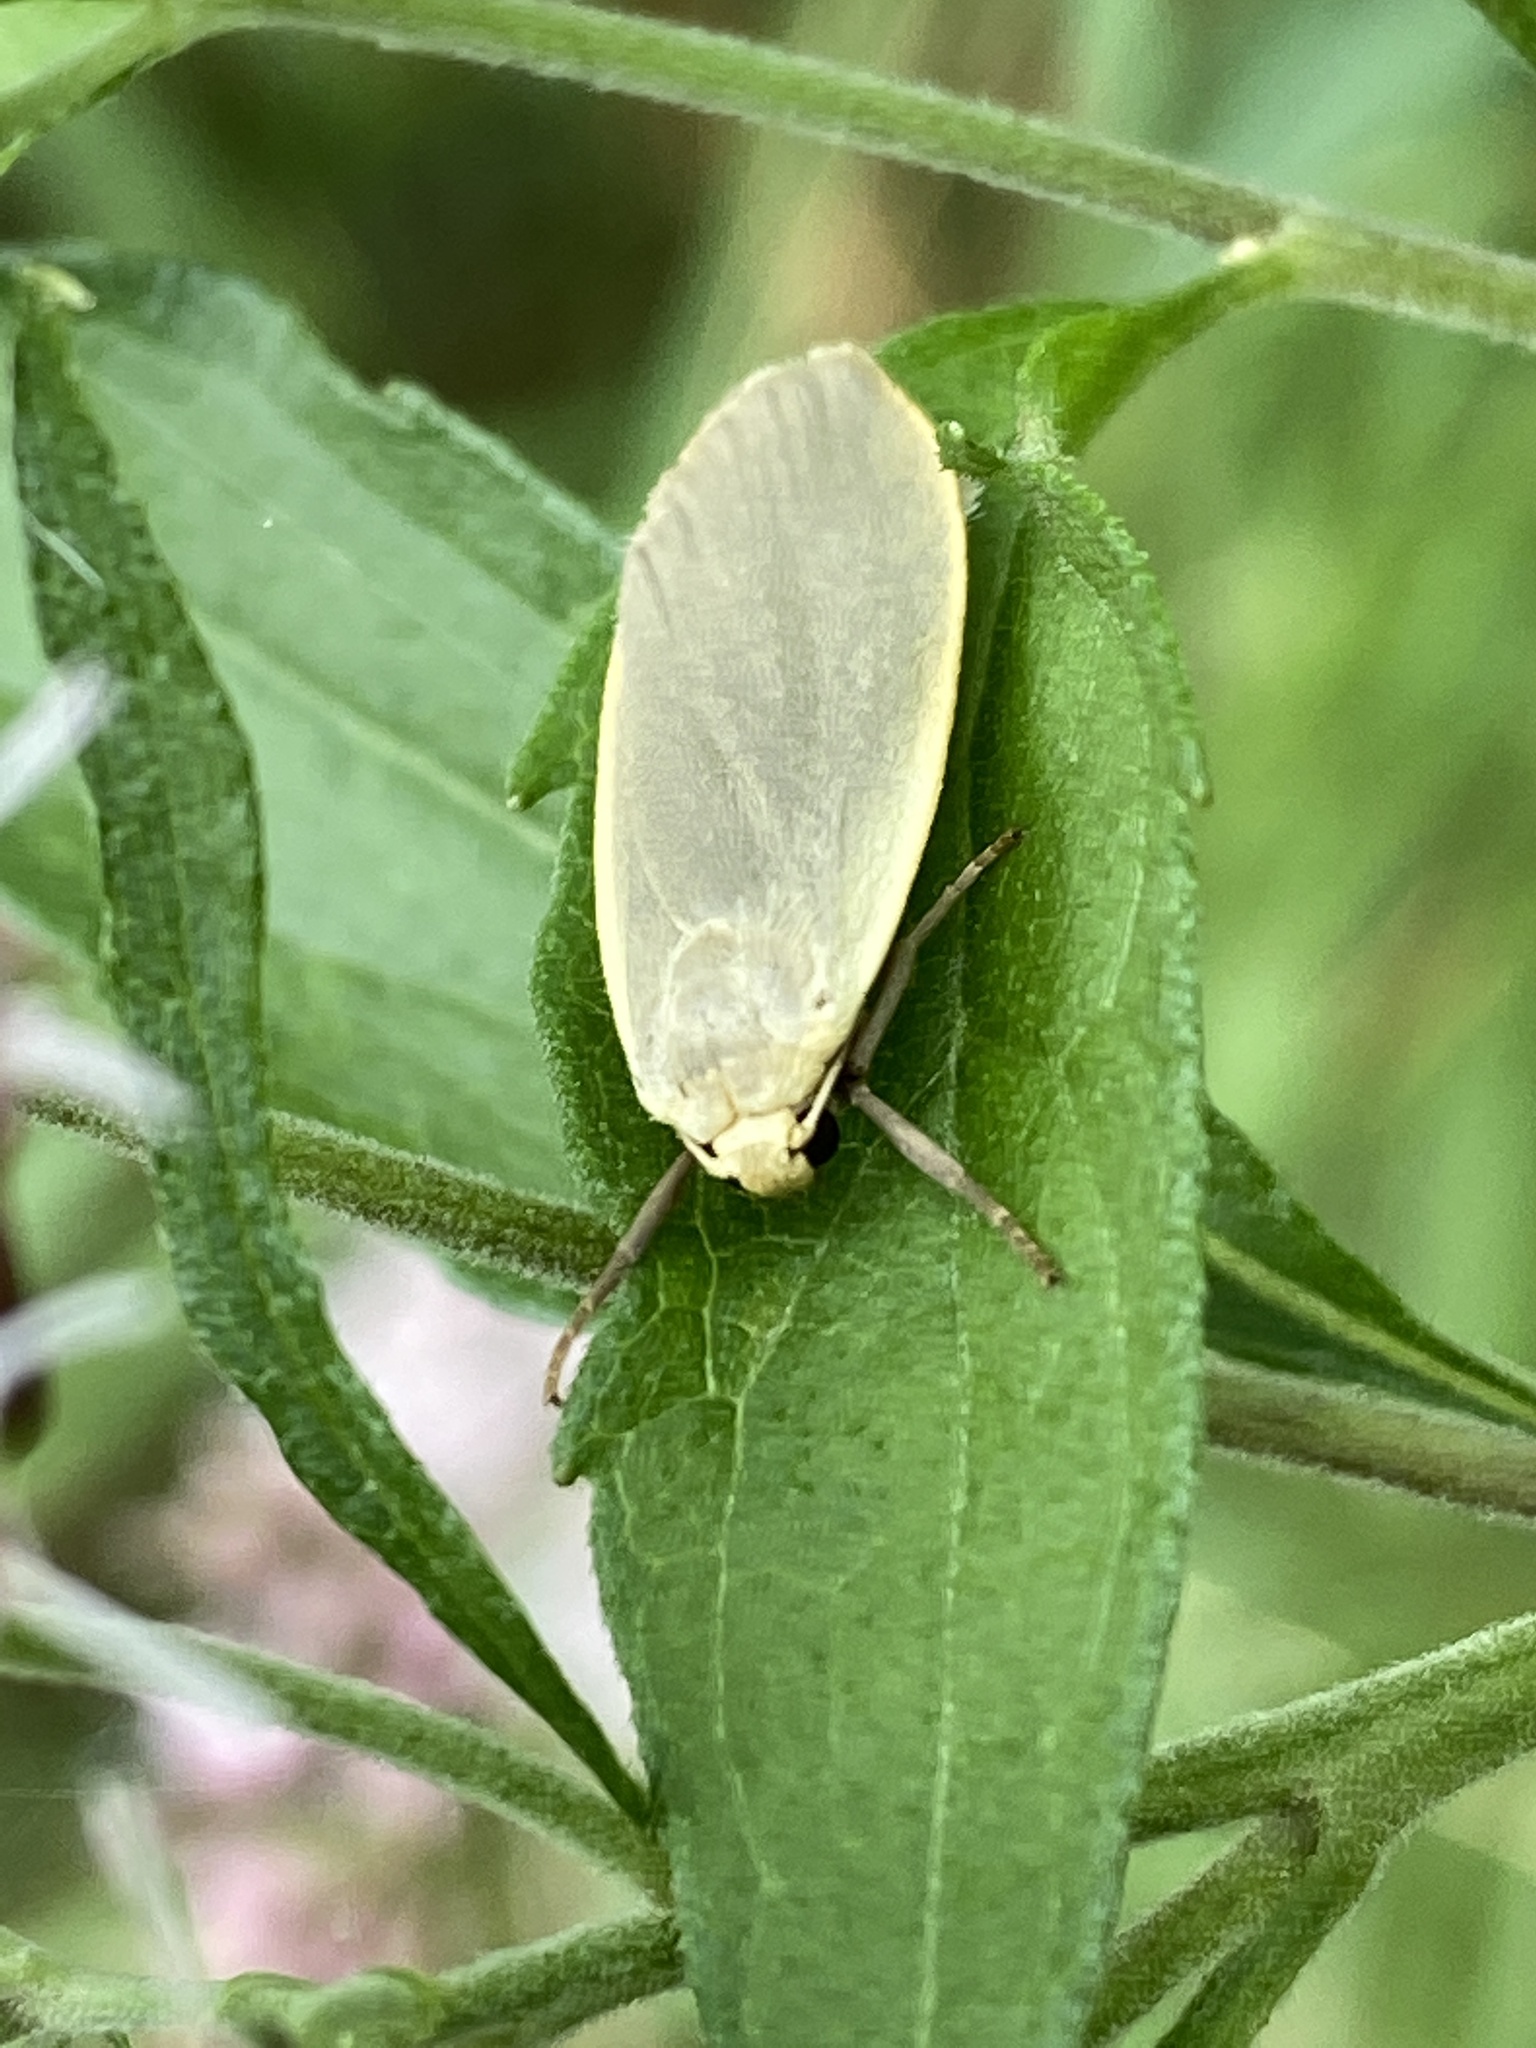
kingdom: Animalia
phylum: Arthropoda
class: Insecta
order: Lepidoptera
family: Erebidae
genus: Collita
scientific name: Collita griseola
